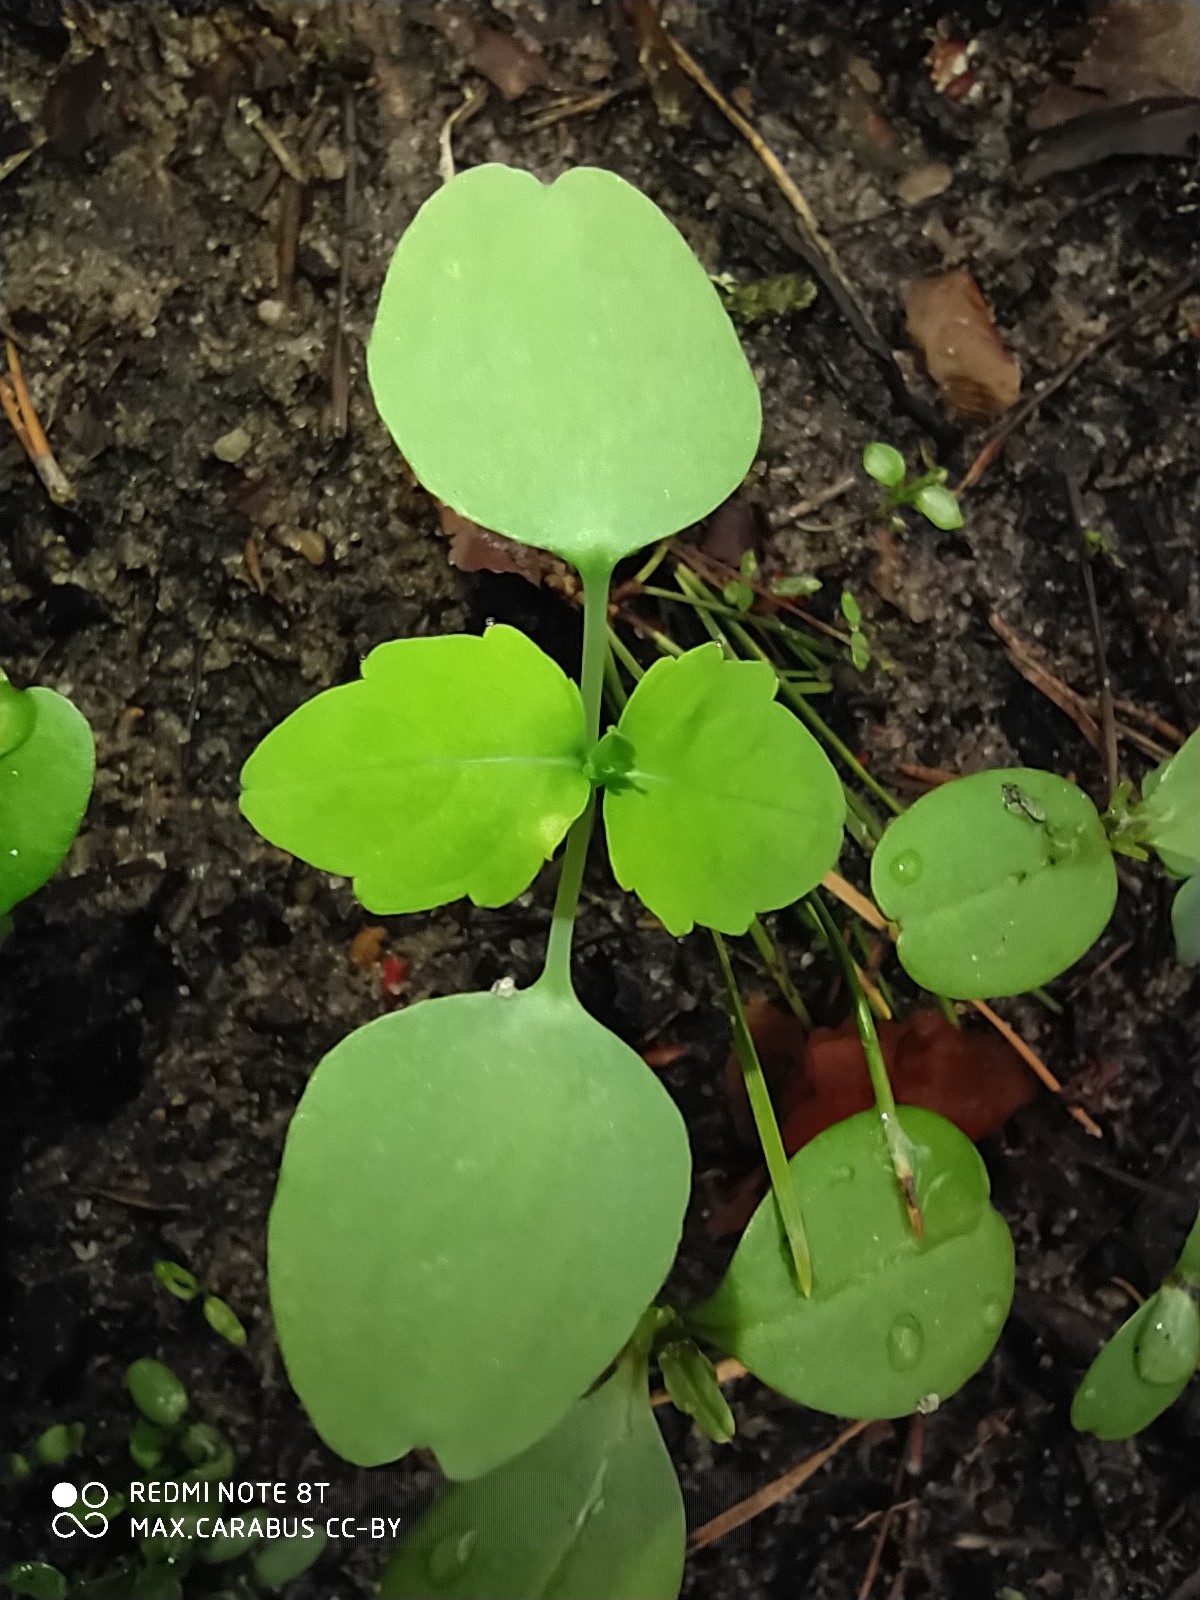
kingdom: Plantae
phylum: Tracheophyta
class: Magnoliopsida
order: Ericales
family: Balsaminaceae
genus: Impatiens
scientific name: Impatiens noli-tangere
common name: Touch-me-not balsam
